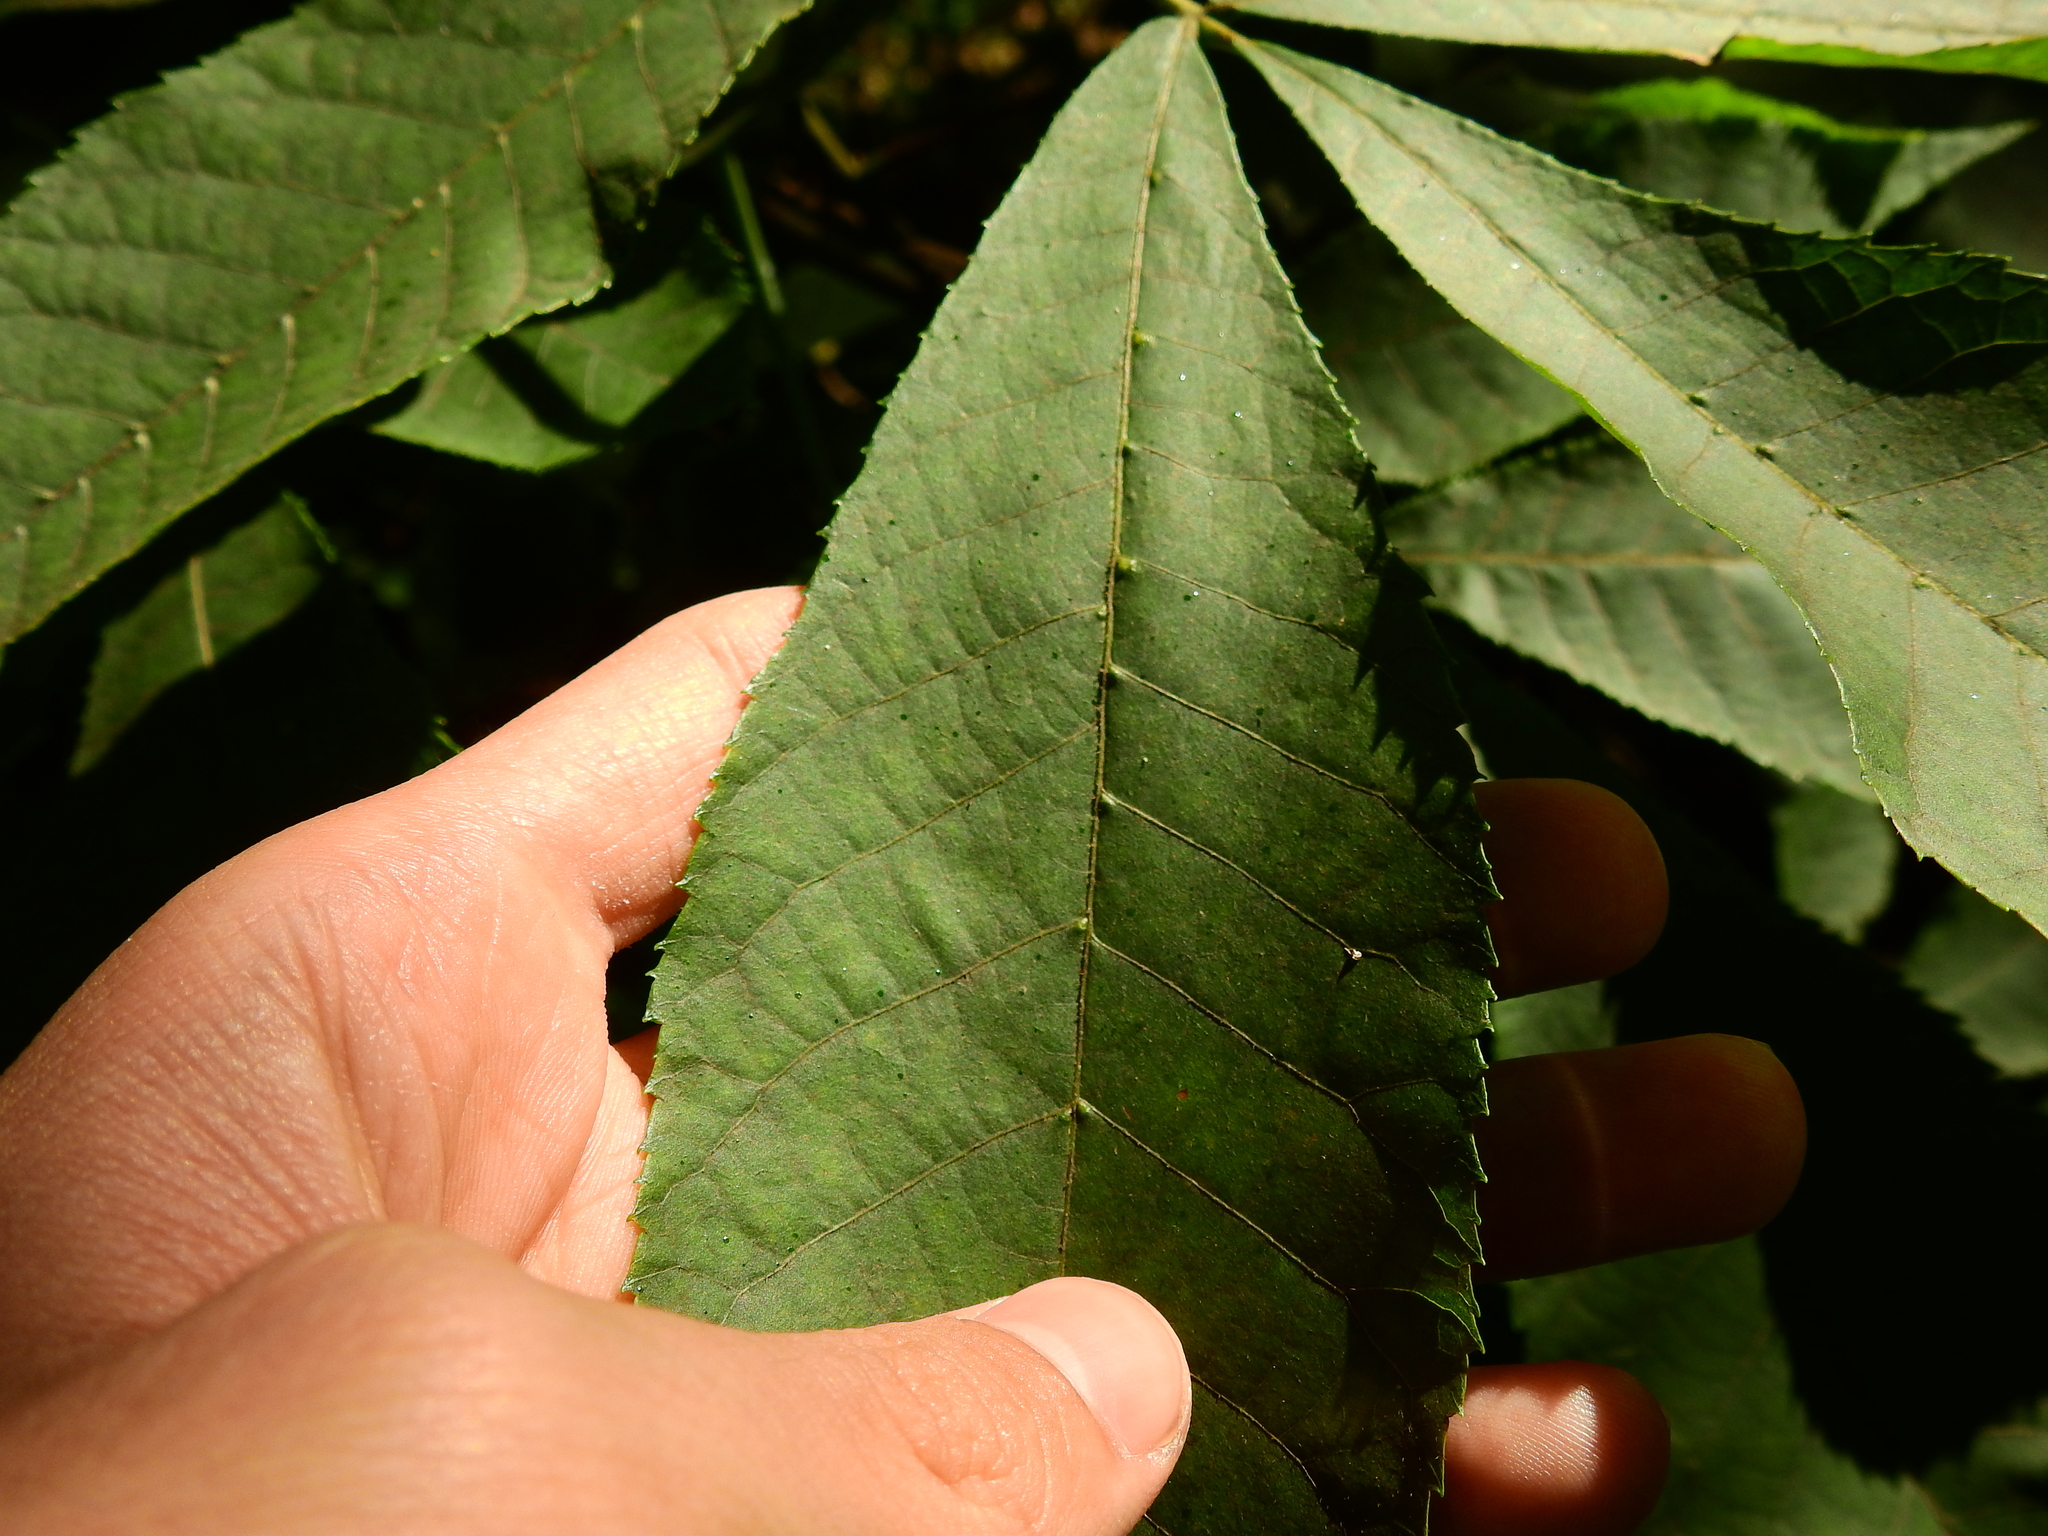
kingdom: Animalia
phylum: Arthropoda
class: Arachnida
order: Trombidiformes
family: Eriophyidae
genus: Aceria
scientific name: Aceria
